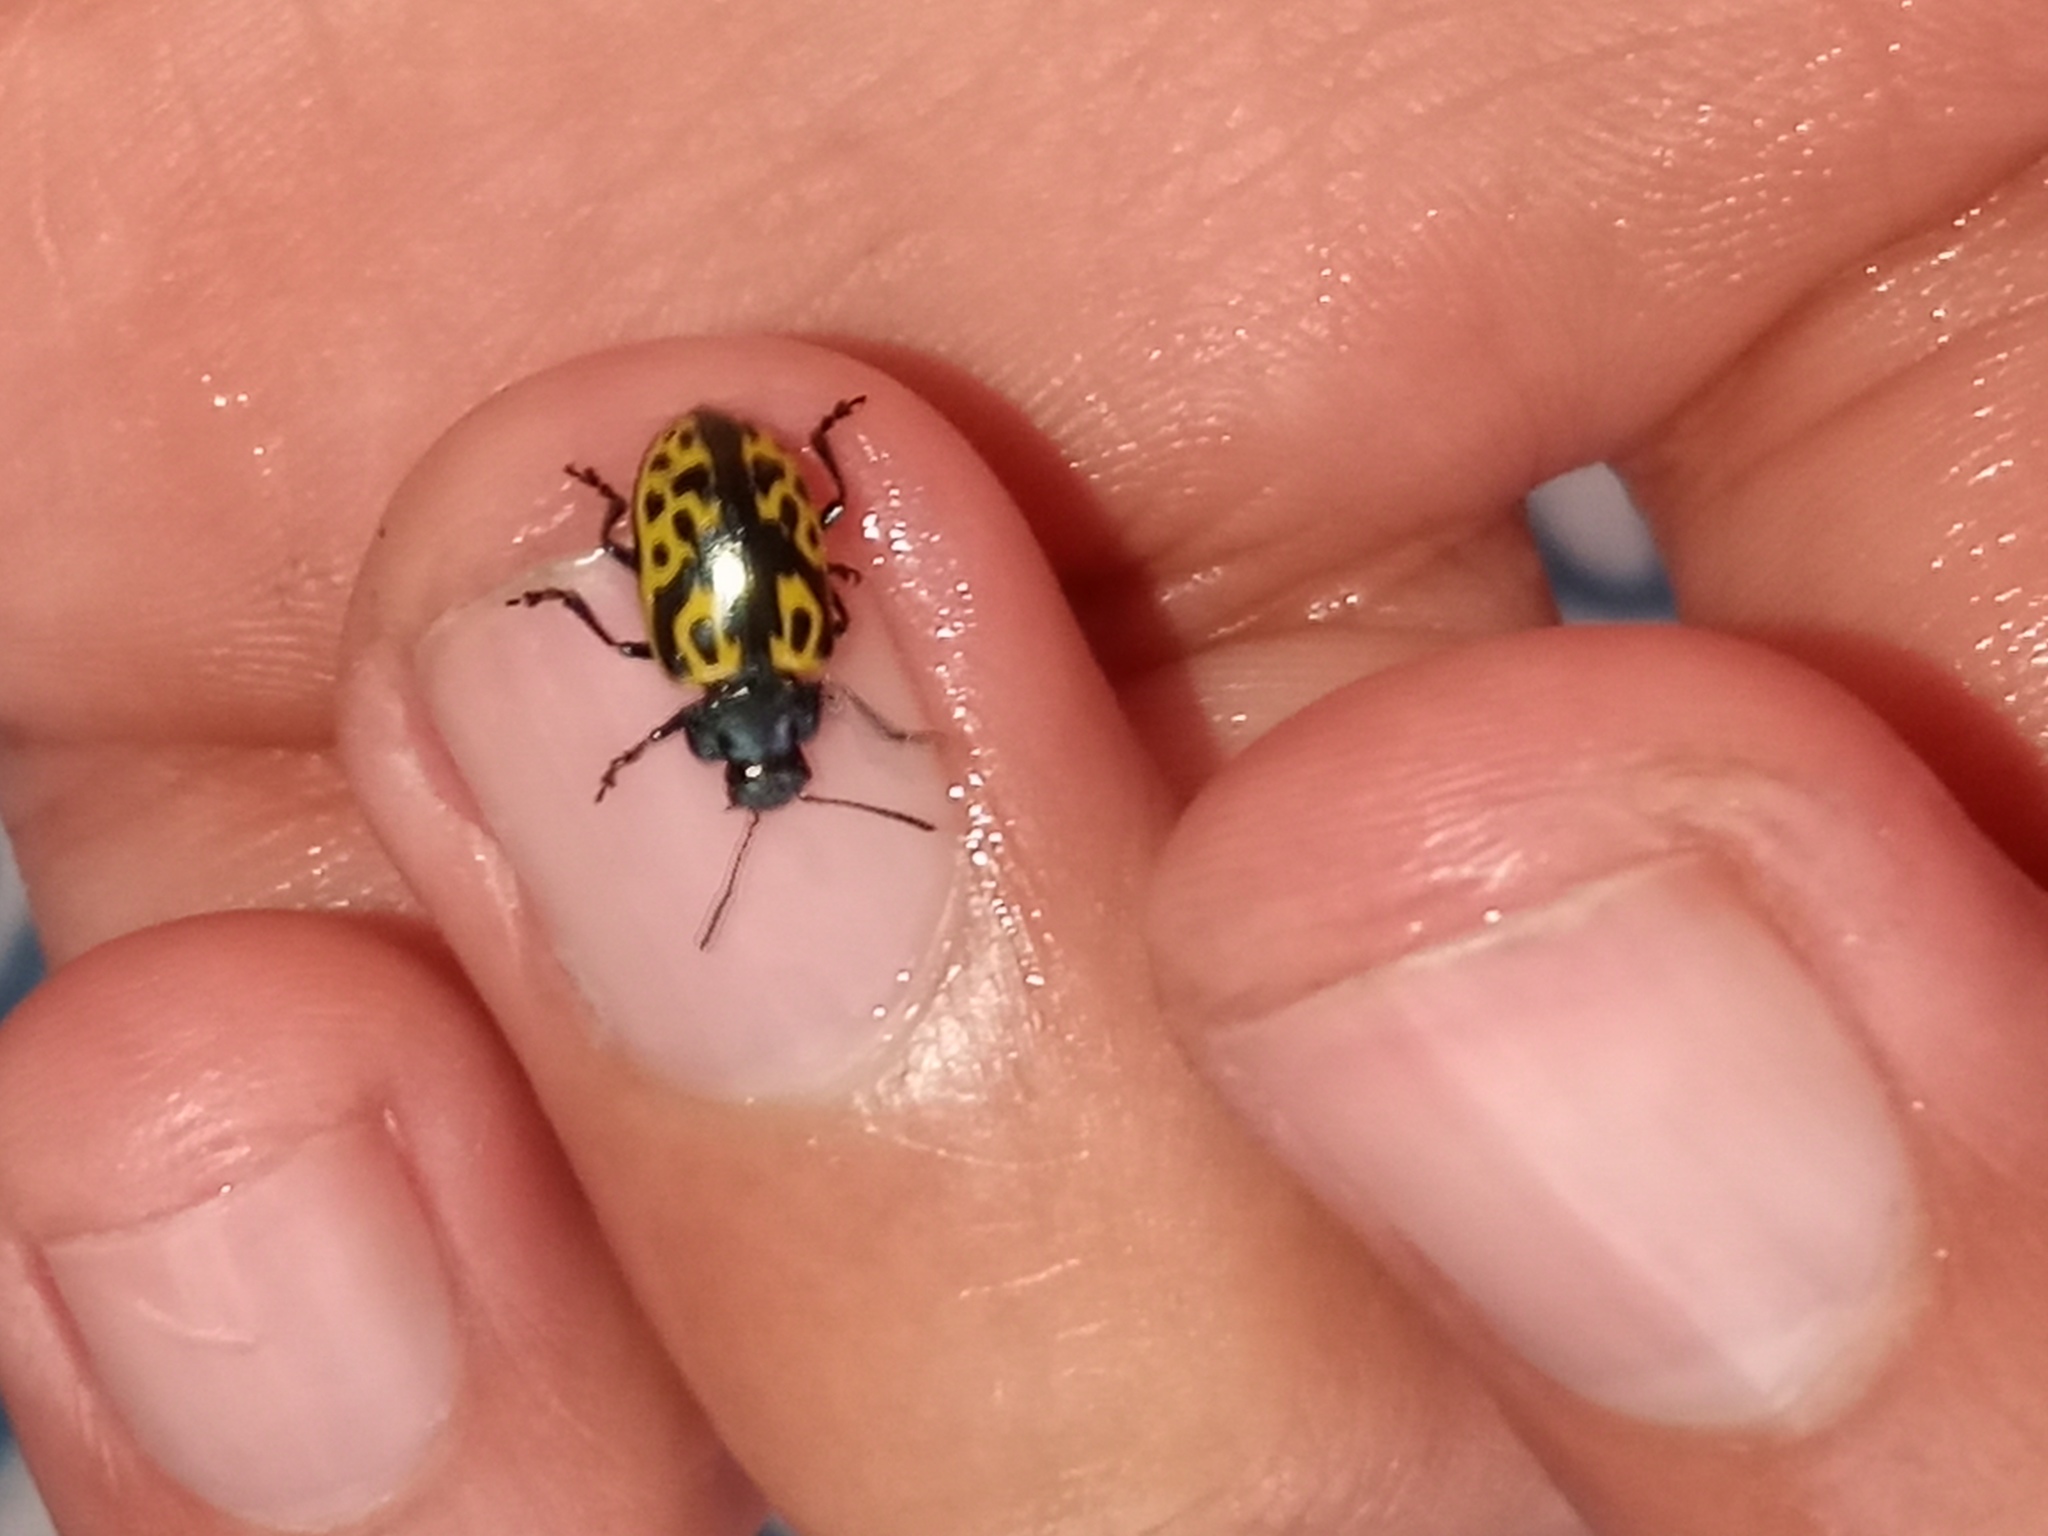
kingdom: Animalia
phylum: Arthropoda
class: Insecta
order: Coleoptera
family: Chrysomelidae
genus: Calligrapha
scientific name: Calligrapha
